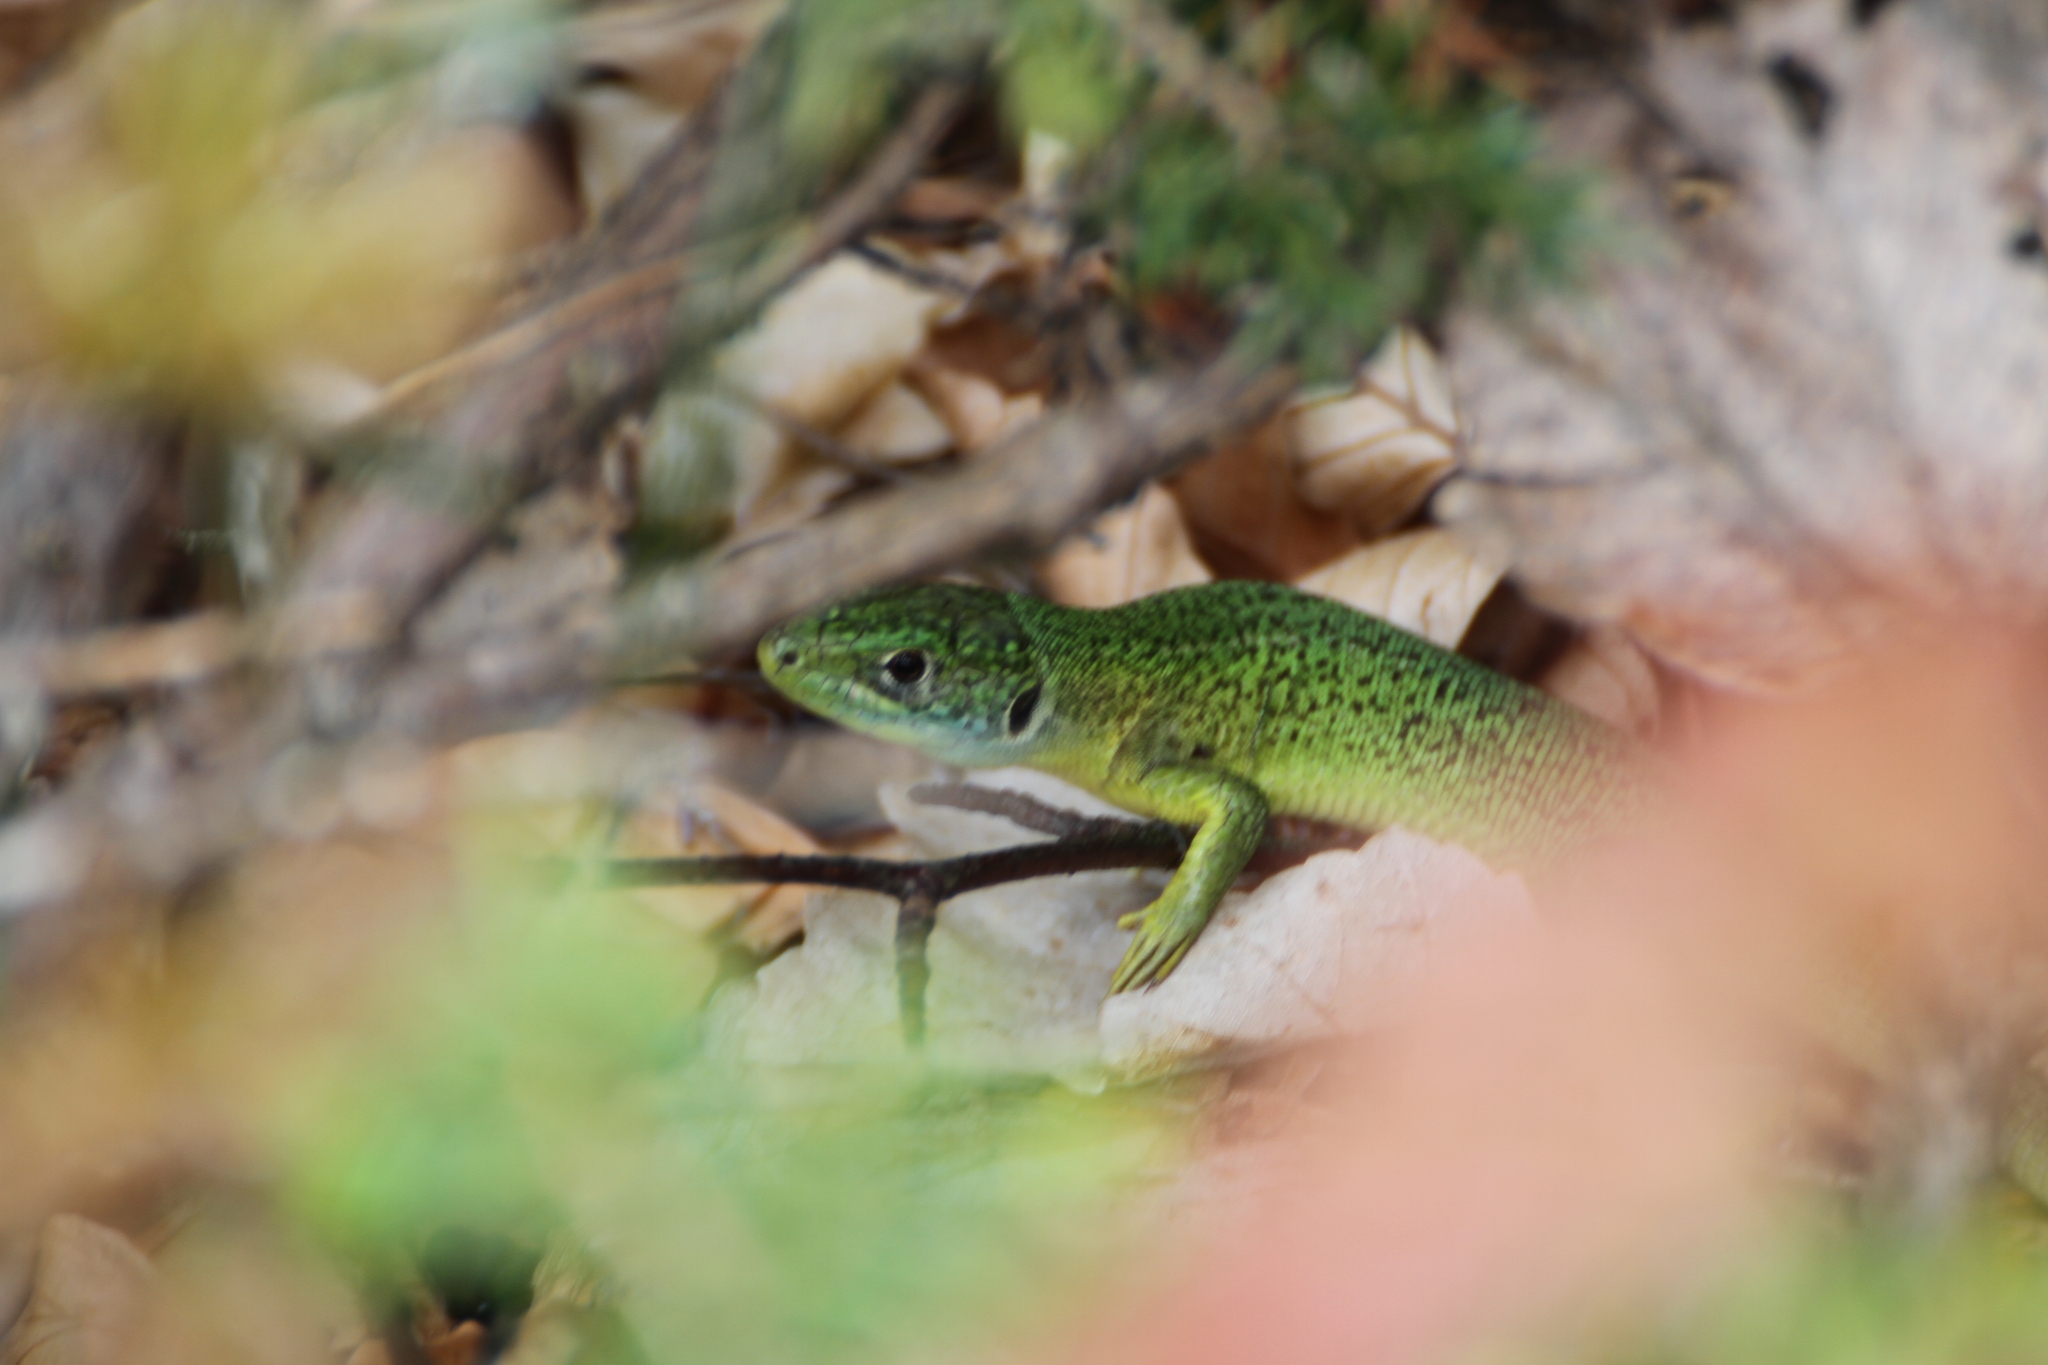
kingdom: Animalia
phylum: Chordata
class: Squamata
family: Lacertidae
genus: Lacerta
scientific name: Lacerta bilineata
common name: Western green lizard
